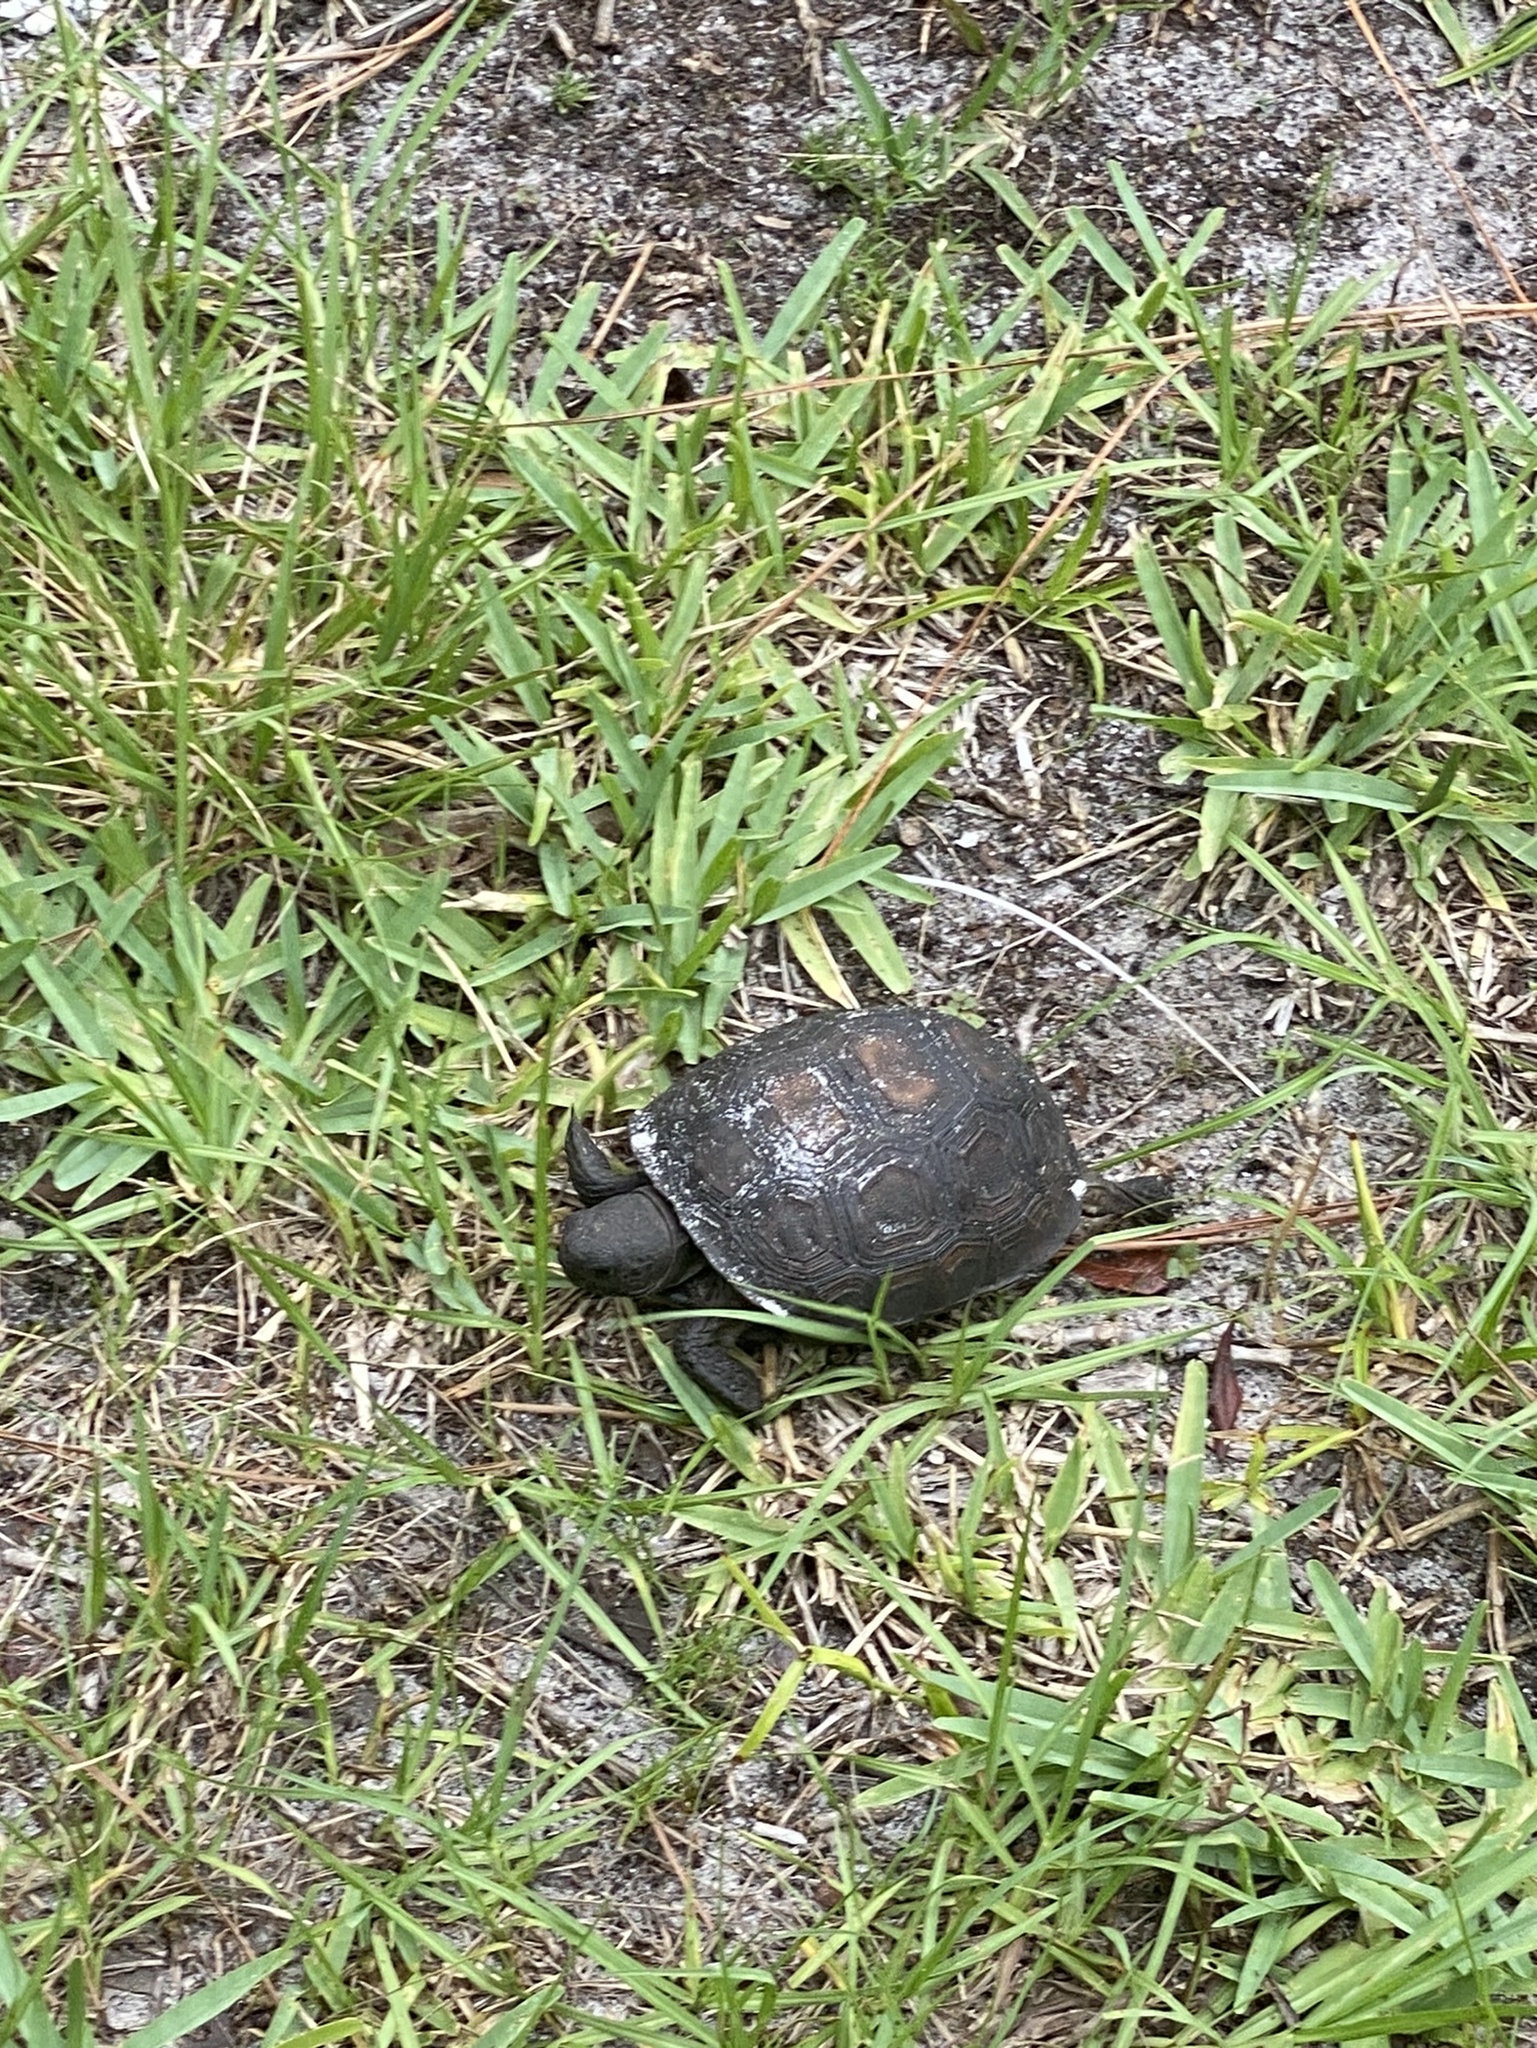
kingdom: Animalia
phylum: Chordata
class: Testudines
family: Testudinidae
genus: Gopherus
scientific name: Gopherus polyphemus
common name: Florida gopher tortoise
